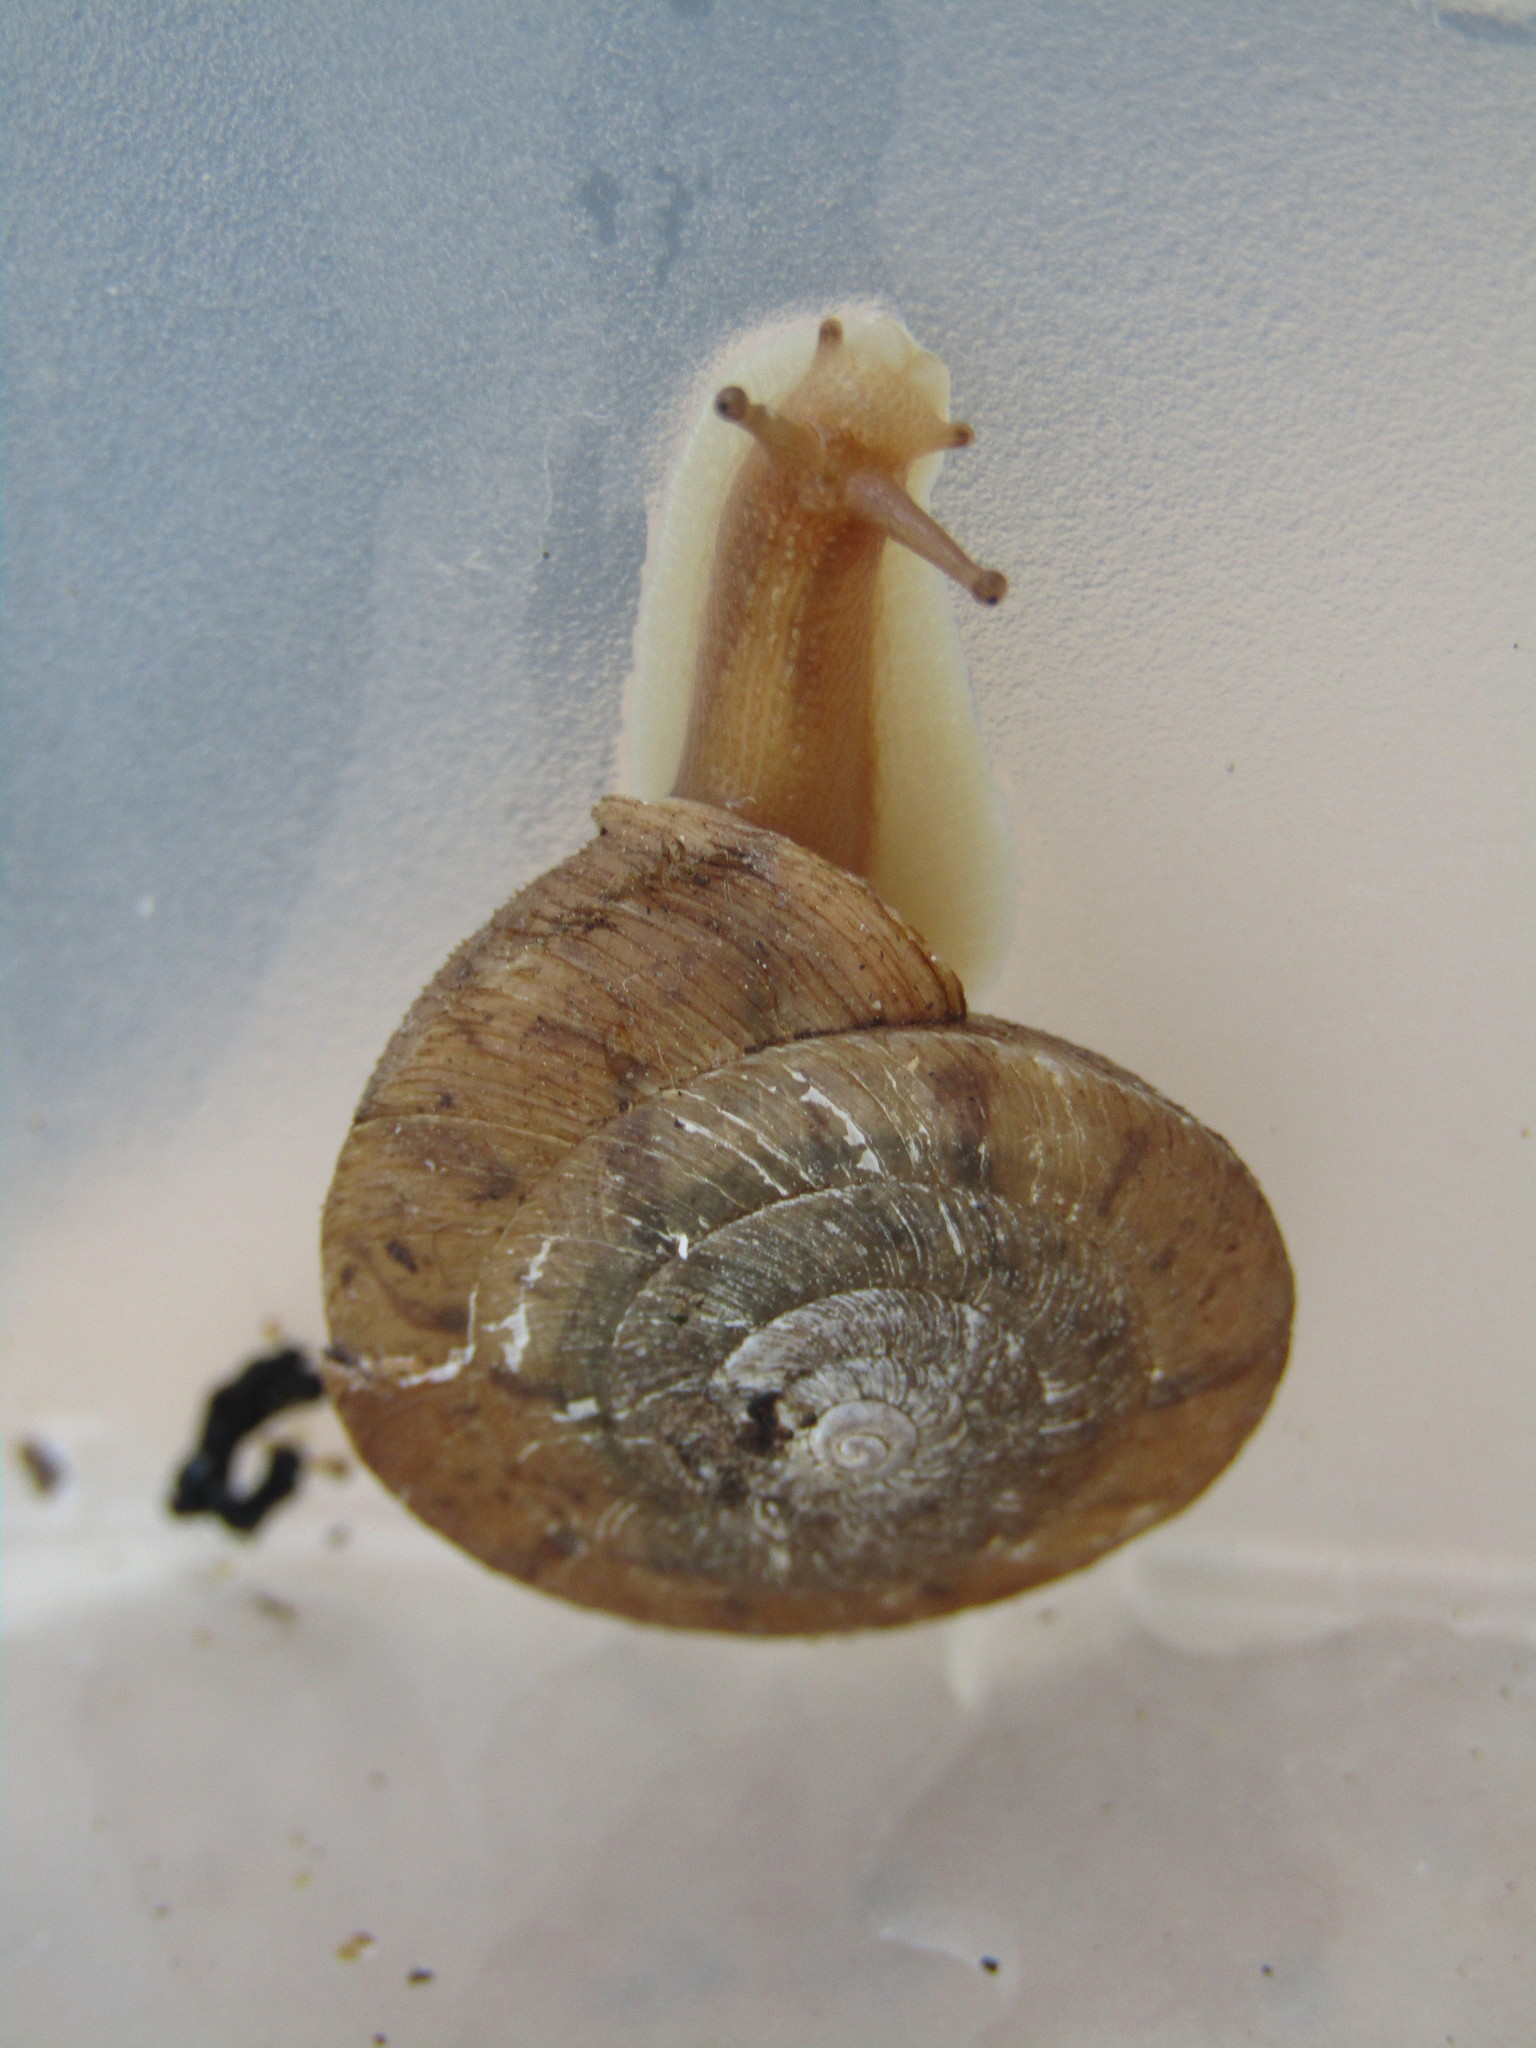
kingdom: Animalia
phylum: Mollusca
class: Gastropoda
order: Stylommatophora
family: Camaenidae
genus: Plectotropis
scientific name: Plectotropis vulgivaga
